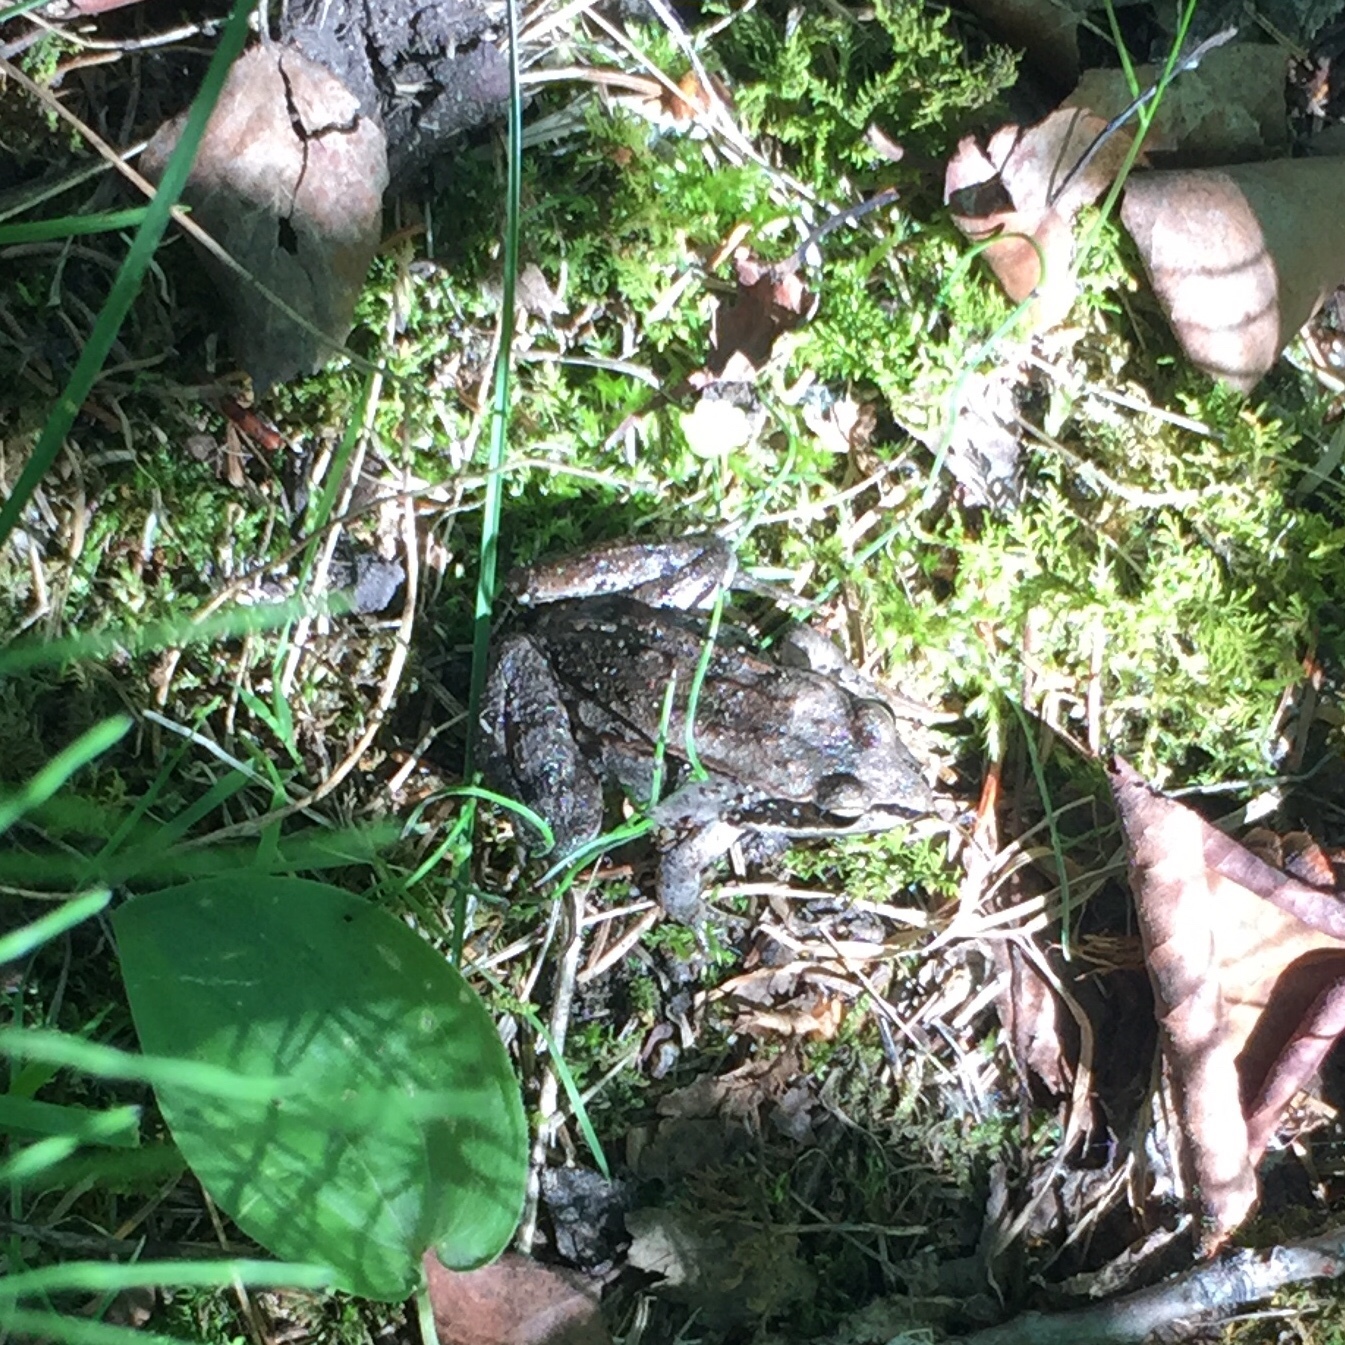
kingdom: Animalia
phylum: Chordata
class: Amphibia
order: Anura
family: Ranidae
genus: Lithobates
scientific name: Lithobates sylvaticus
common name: Wood frog
